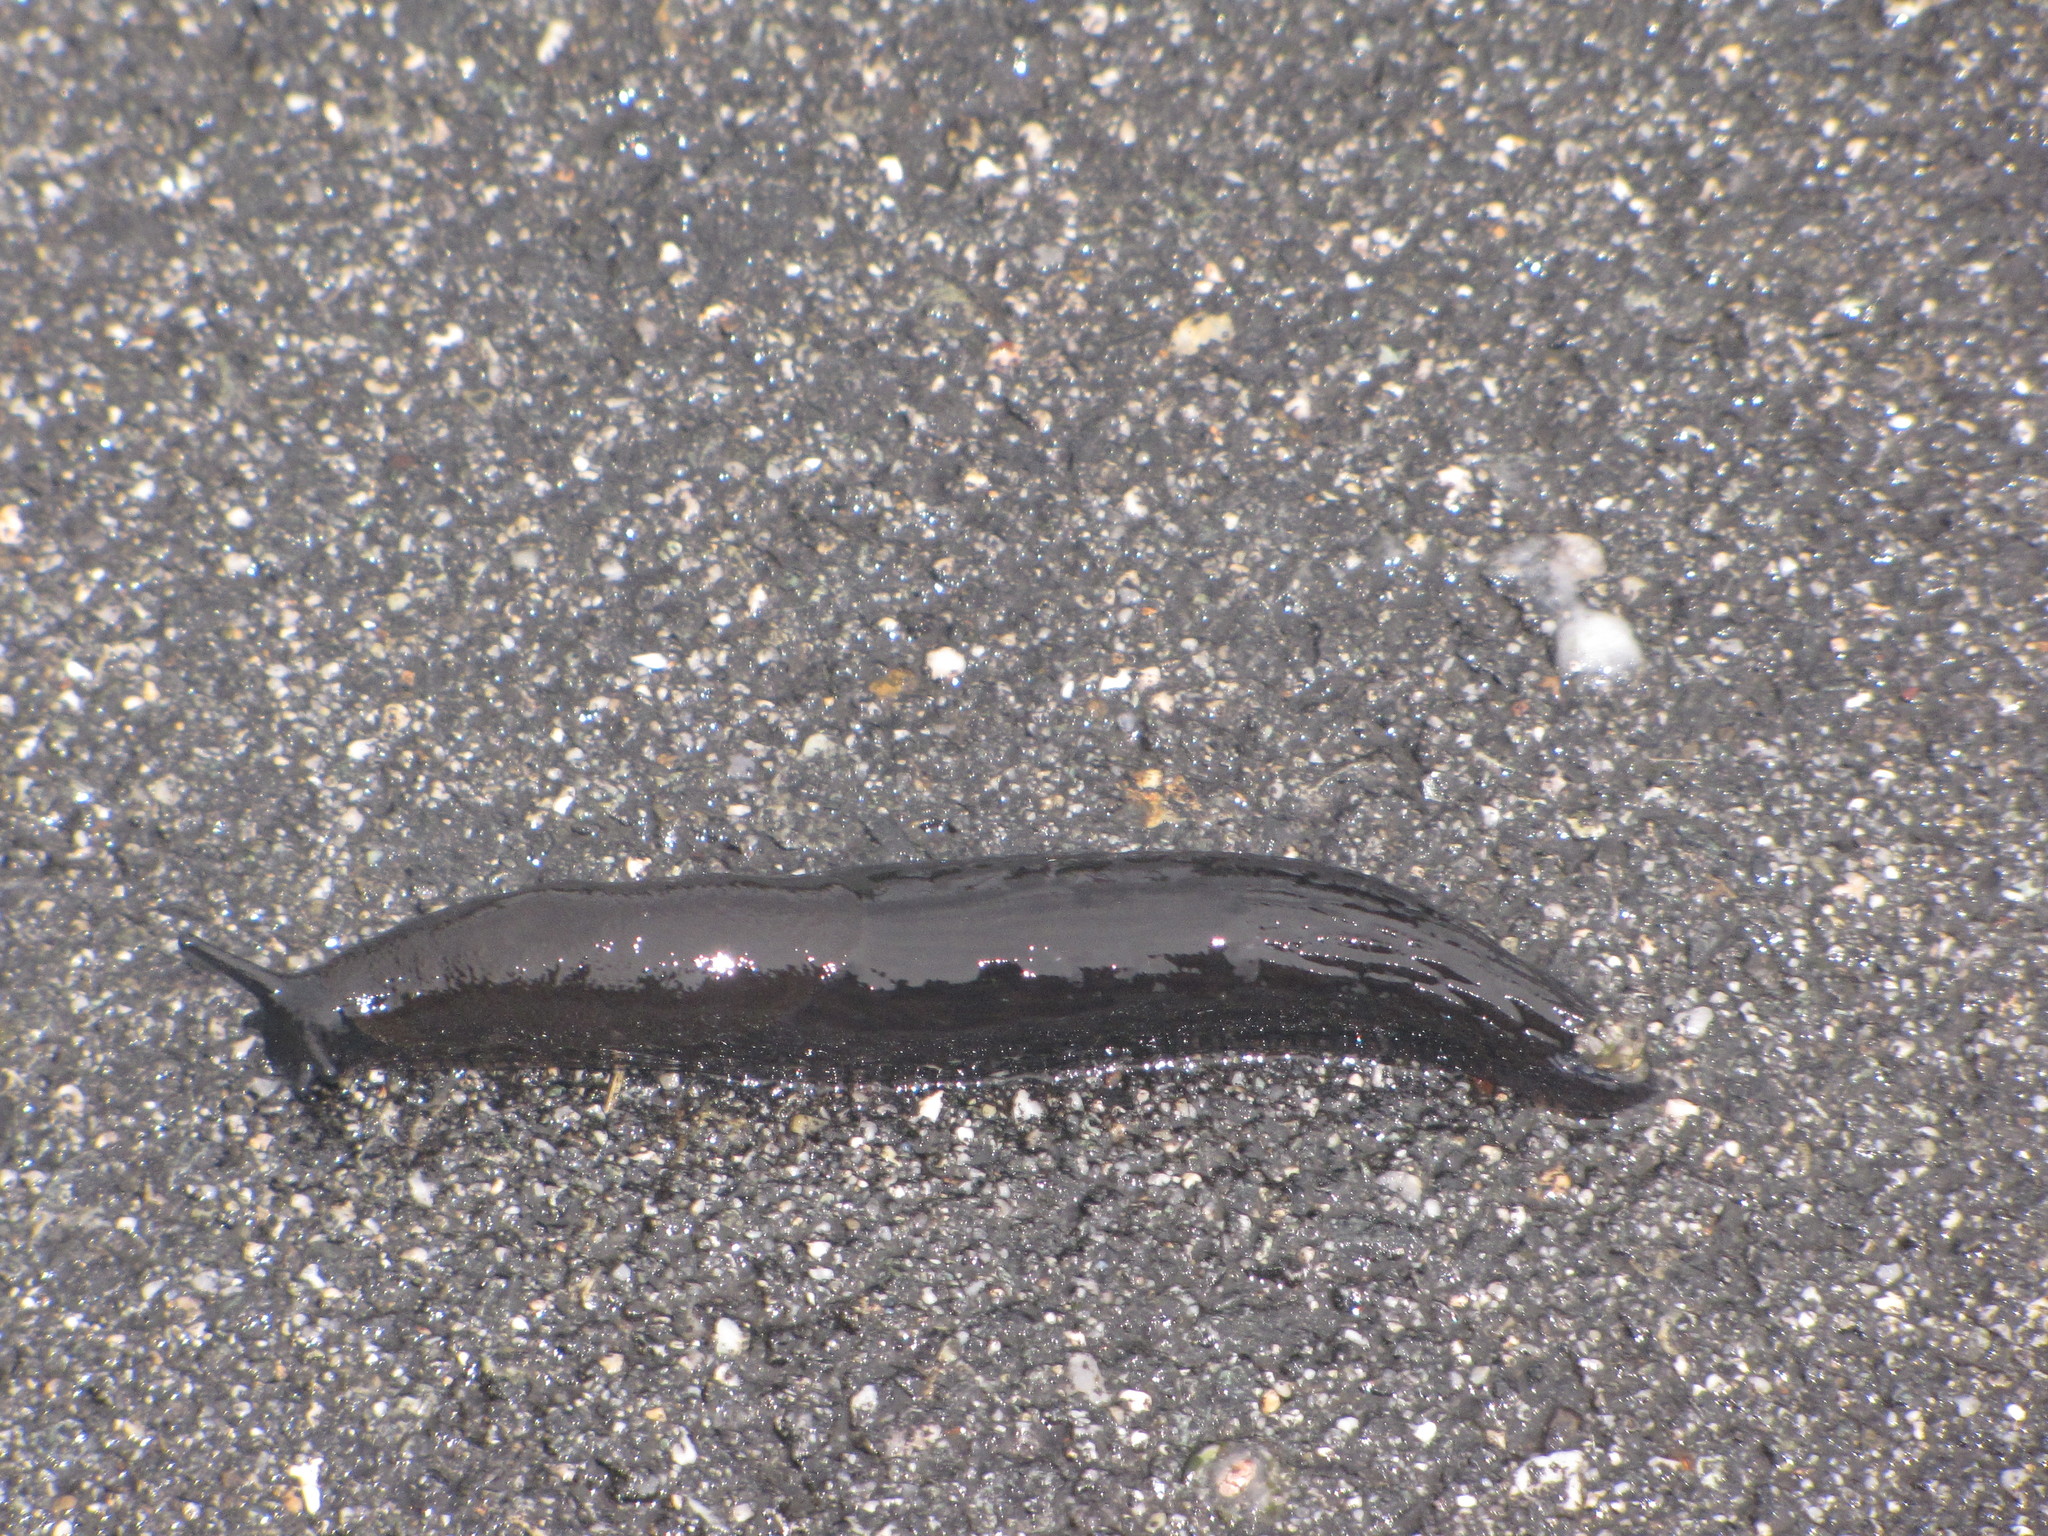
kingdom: Animalia
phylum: Mollusca
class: Gastropoda
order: Stylommatophora
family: Arionidae
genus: Arion
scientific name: Arion rufus
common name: Chocolate arion
